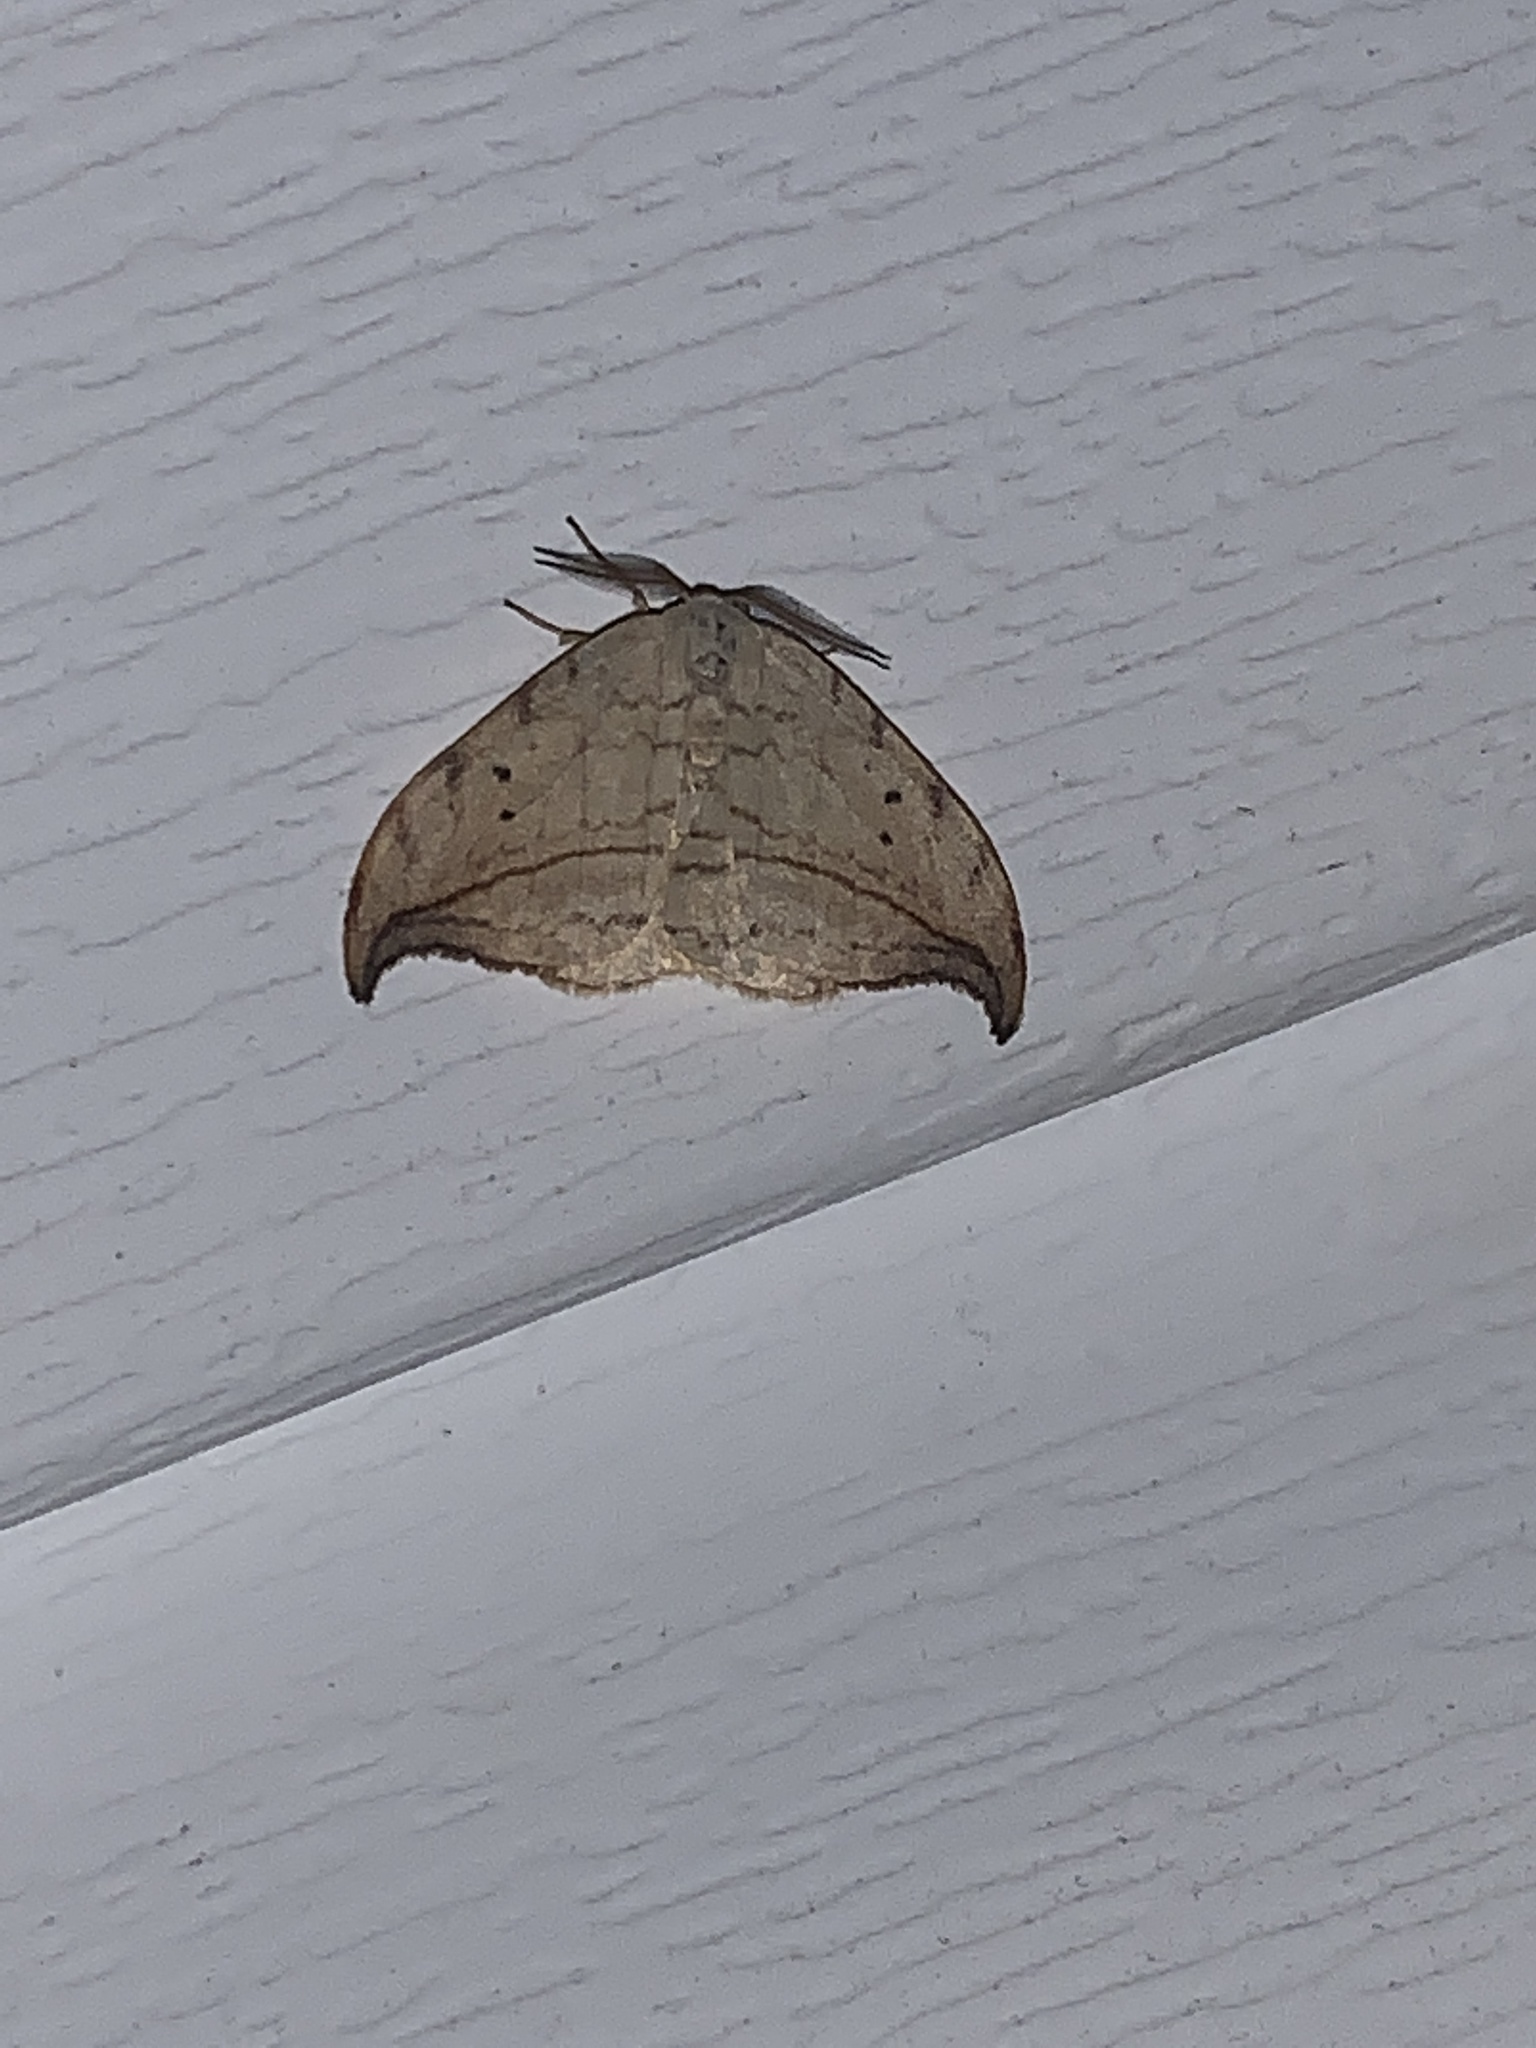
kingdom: Animalia
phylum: Arthropoda
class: Insecta
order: Lepidoptera
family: Drepanidae
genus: Drepana
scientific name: Drepana arcuata
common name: Arched hooktip moth
